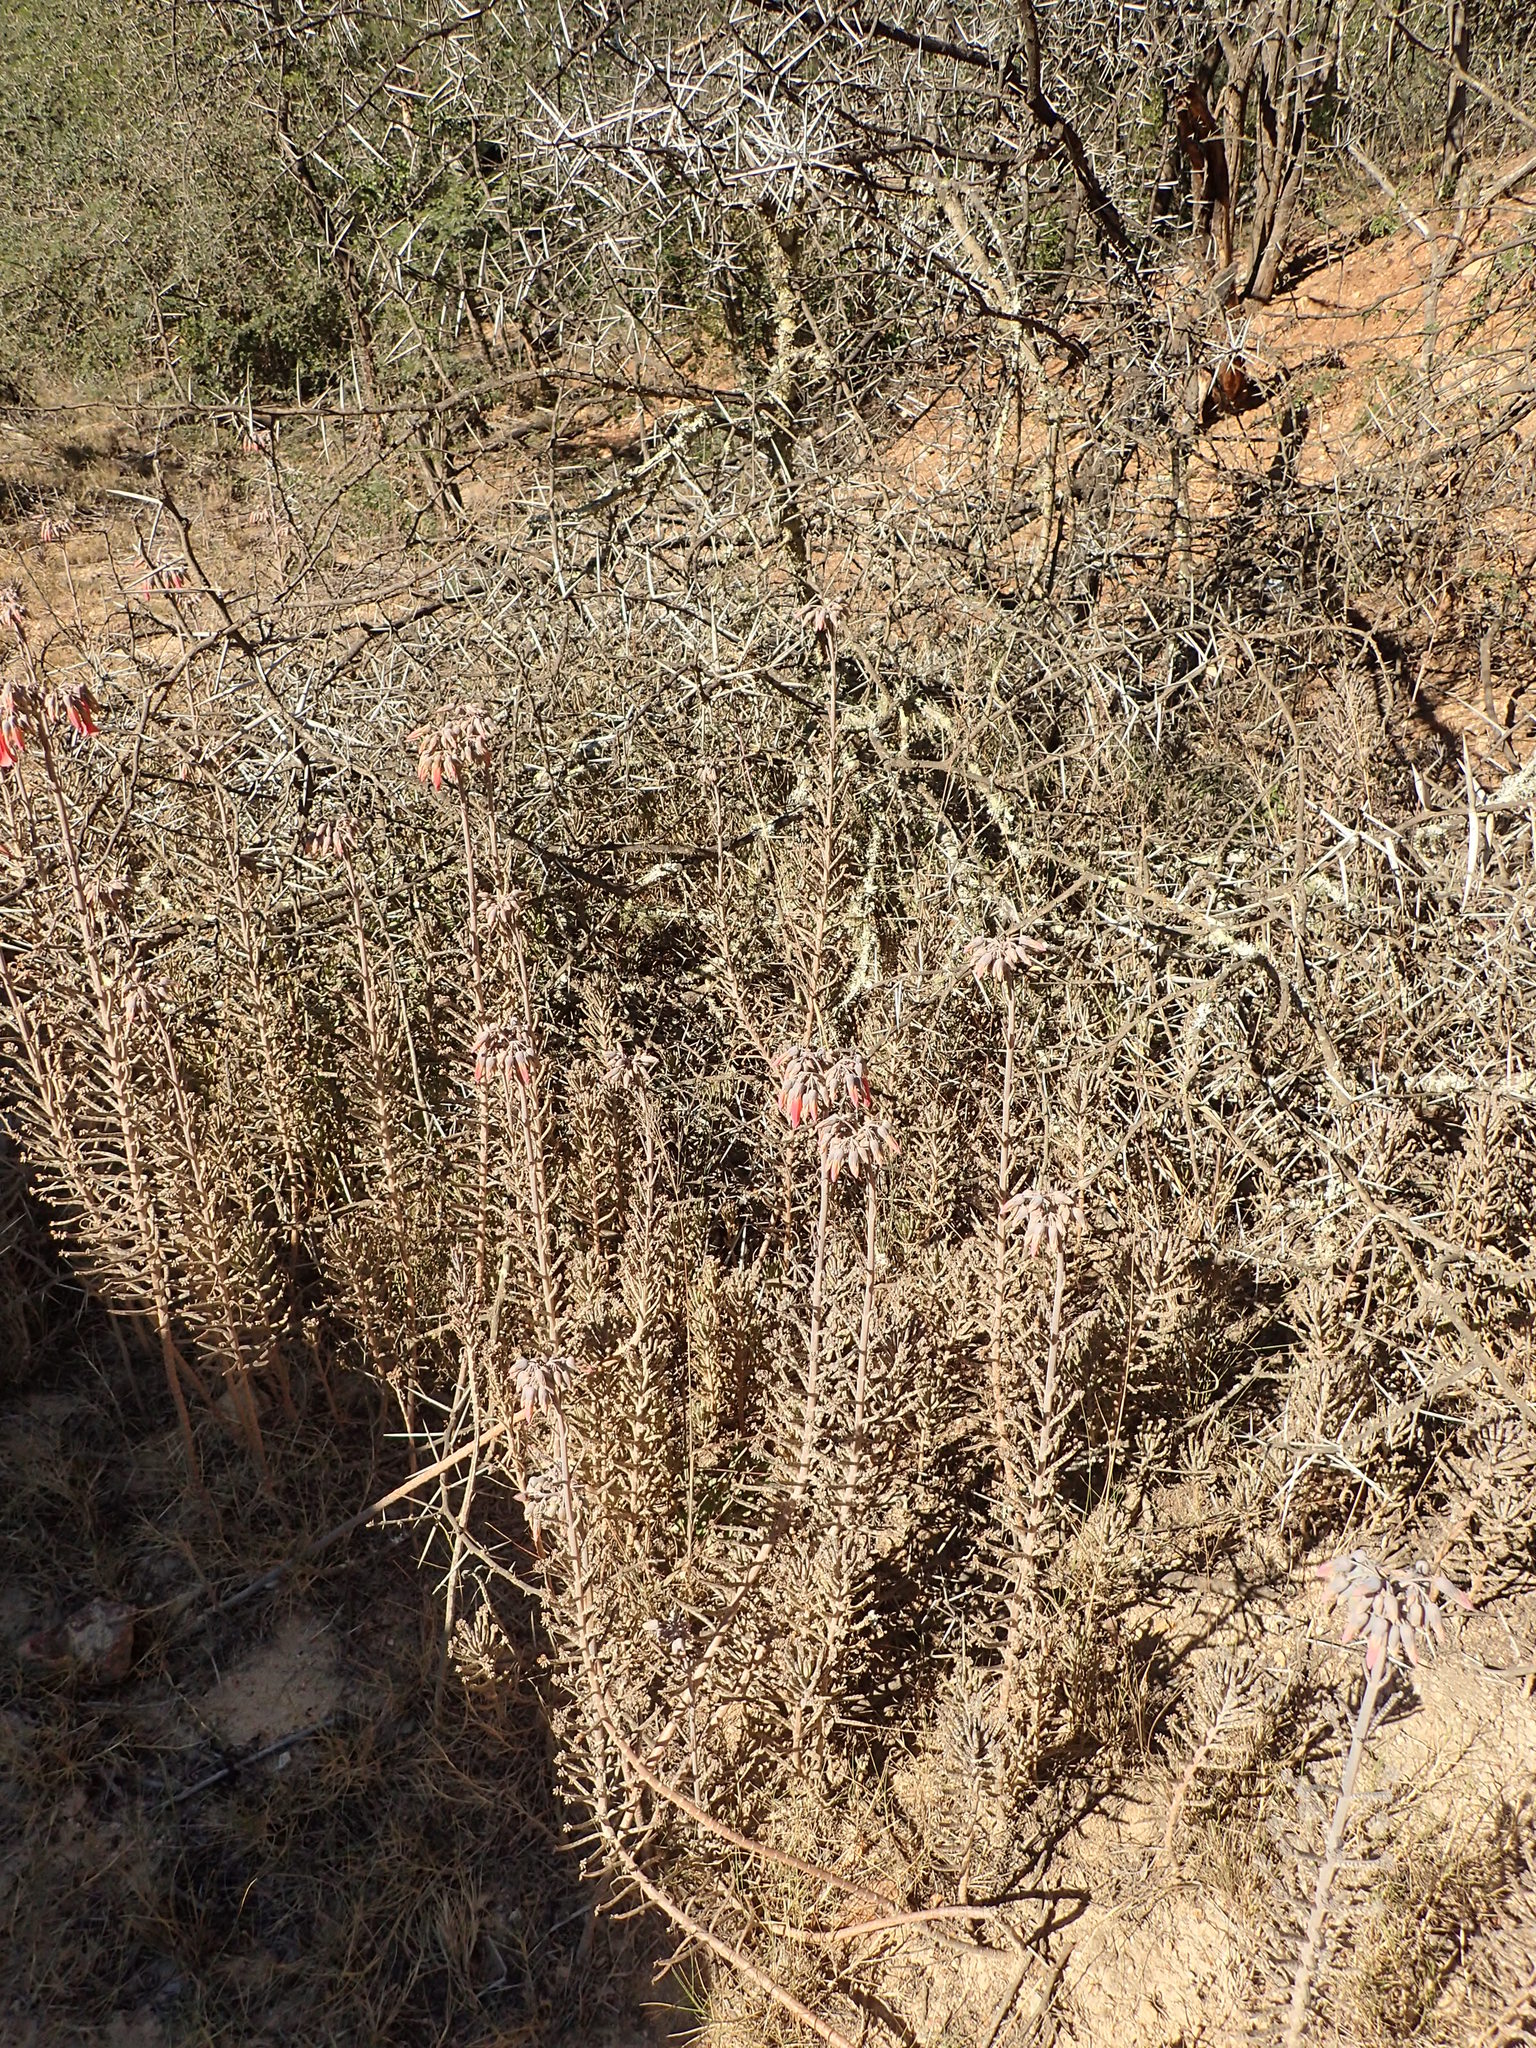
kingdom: Plantae
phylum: Tracheophyta
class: Magnoliopsida
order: Saxifragales
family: Crassulaceae
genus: Kalanchoe
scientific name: Kalanchoe delagoensis
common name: Chandelier plant
